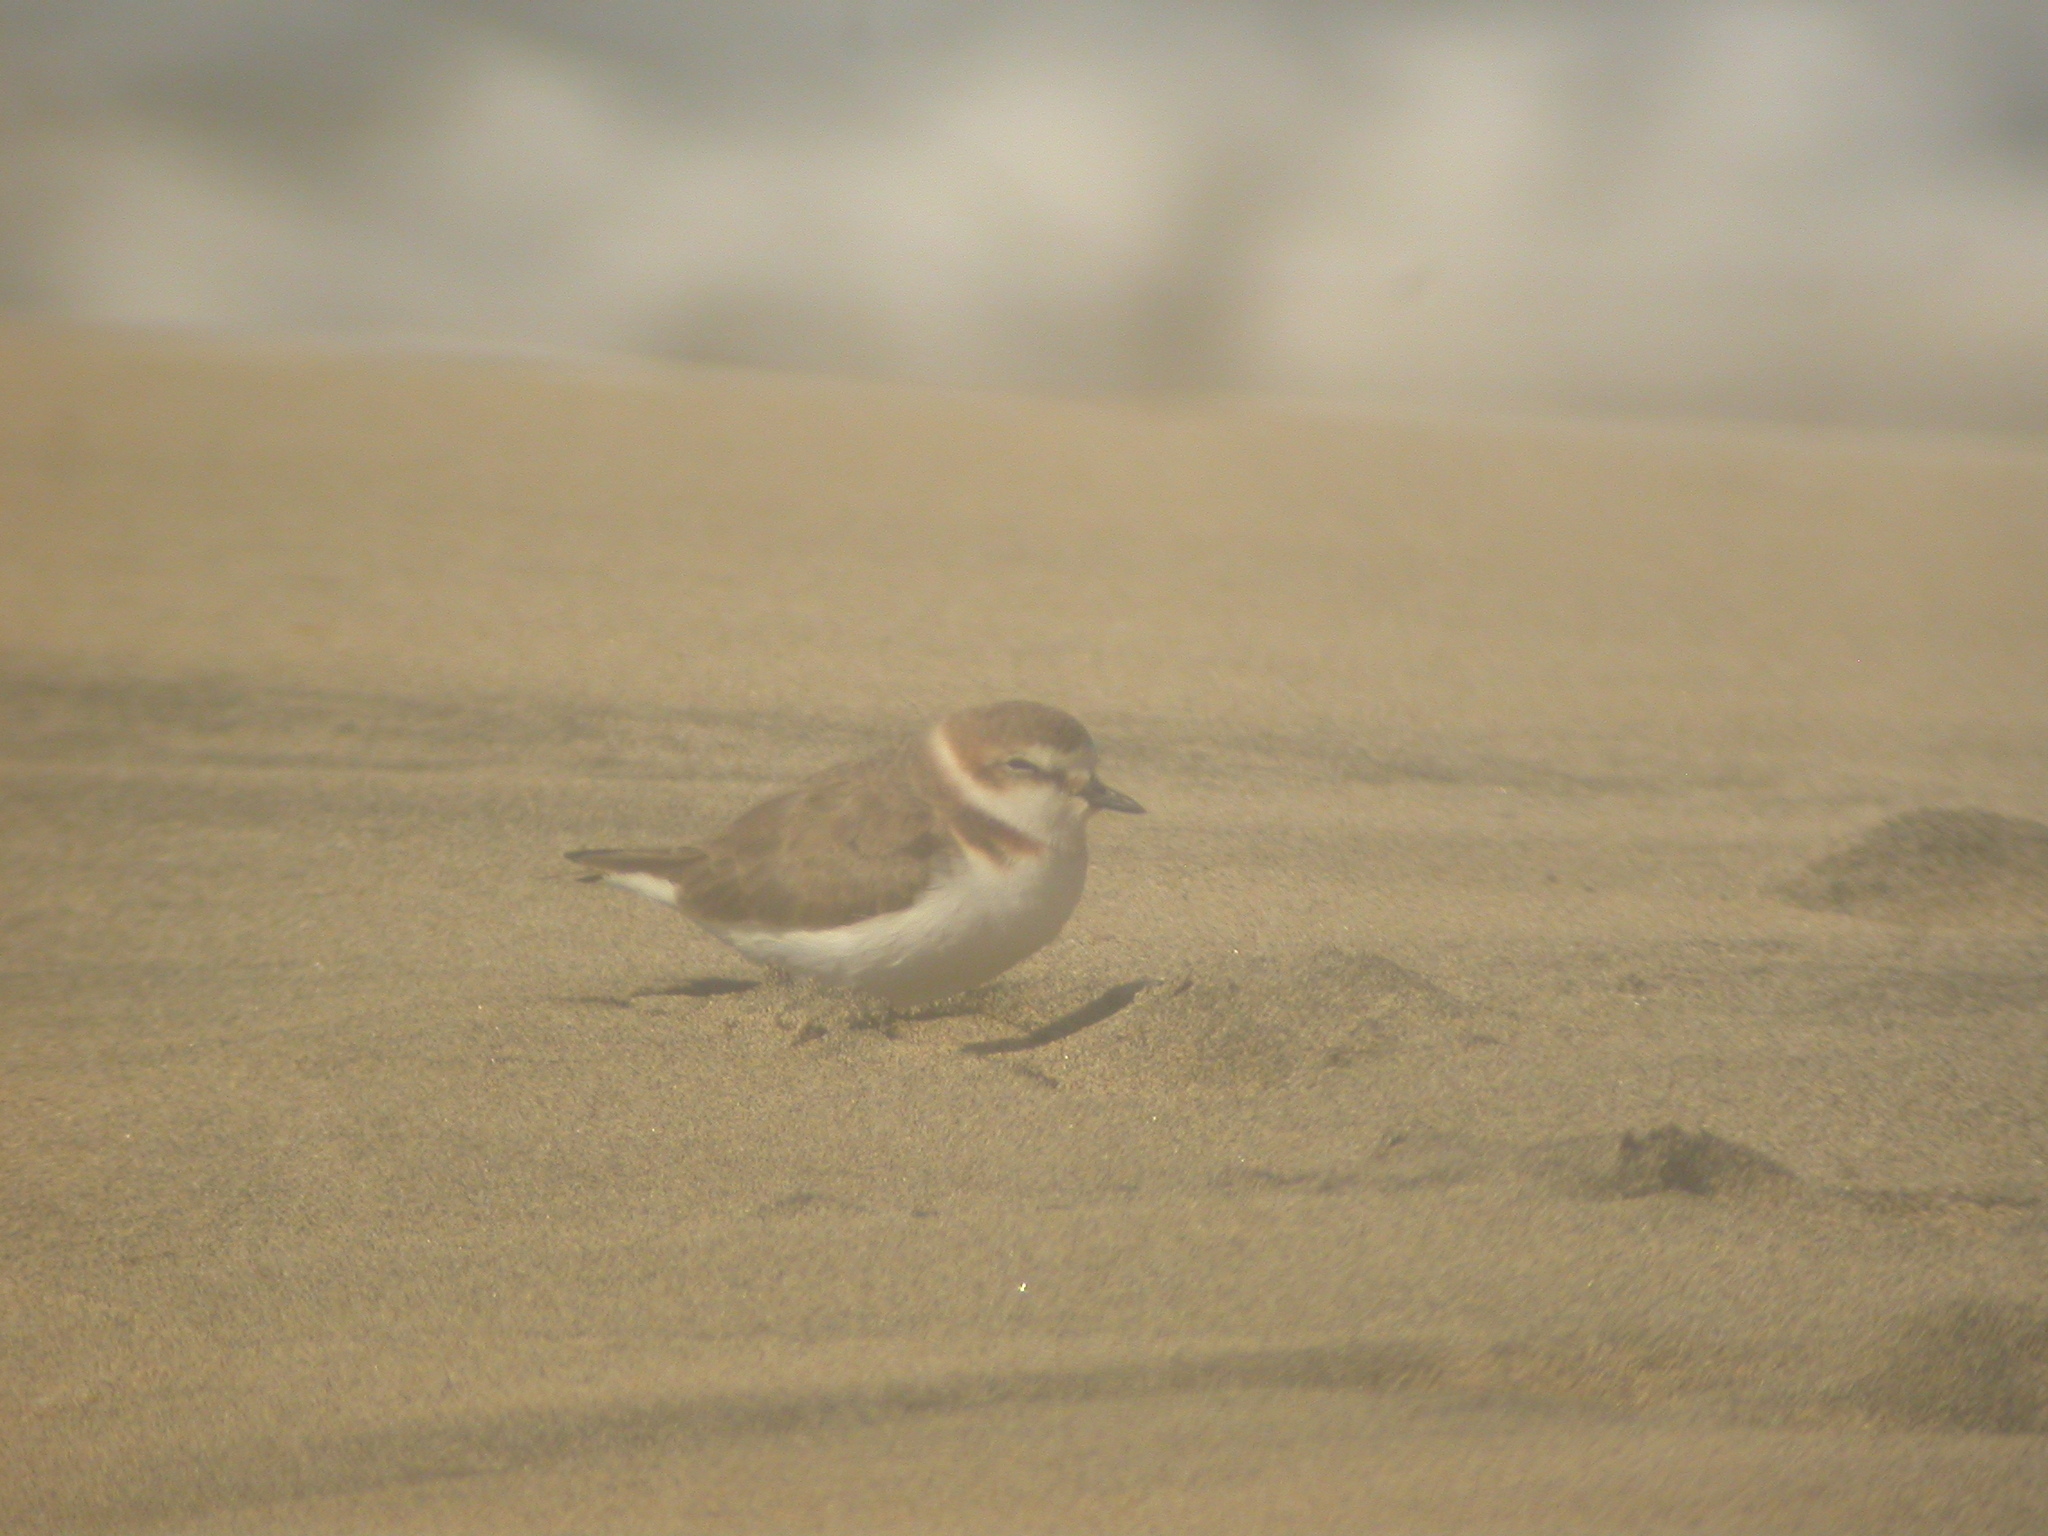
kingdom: Animalia
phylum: Chordata
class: Aves
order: Charadriiformes
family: Charadriidae
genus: Charadrius
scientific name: Charadrius alexandrinus
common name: Kentish plover
